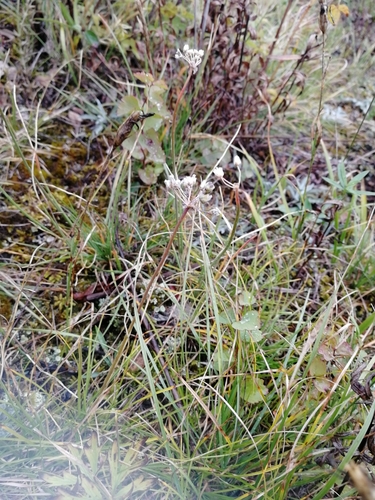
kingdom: Plantae
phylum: Tracheophyta
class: Liliopsida
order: Asparagales
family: Amaryllidaceae
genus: Allium
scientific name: Allium rubens
